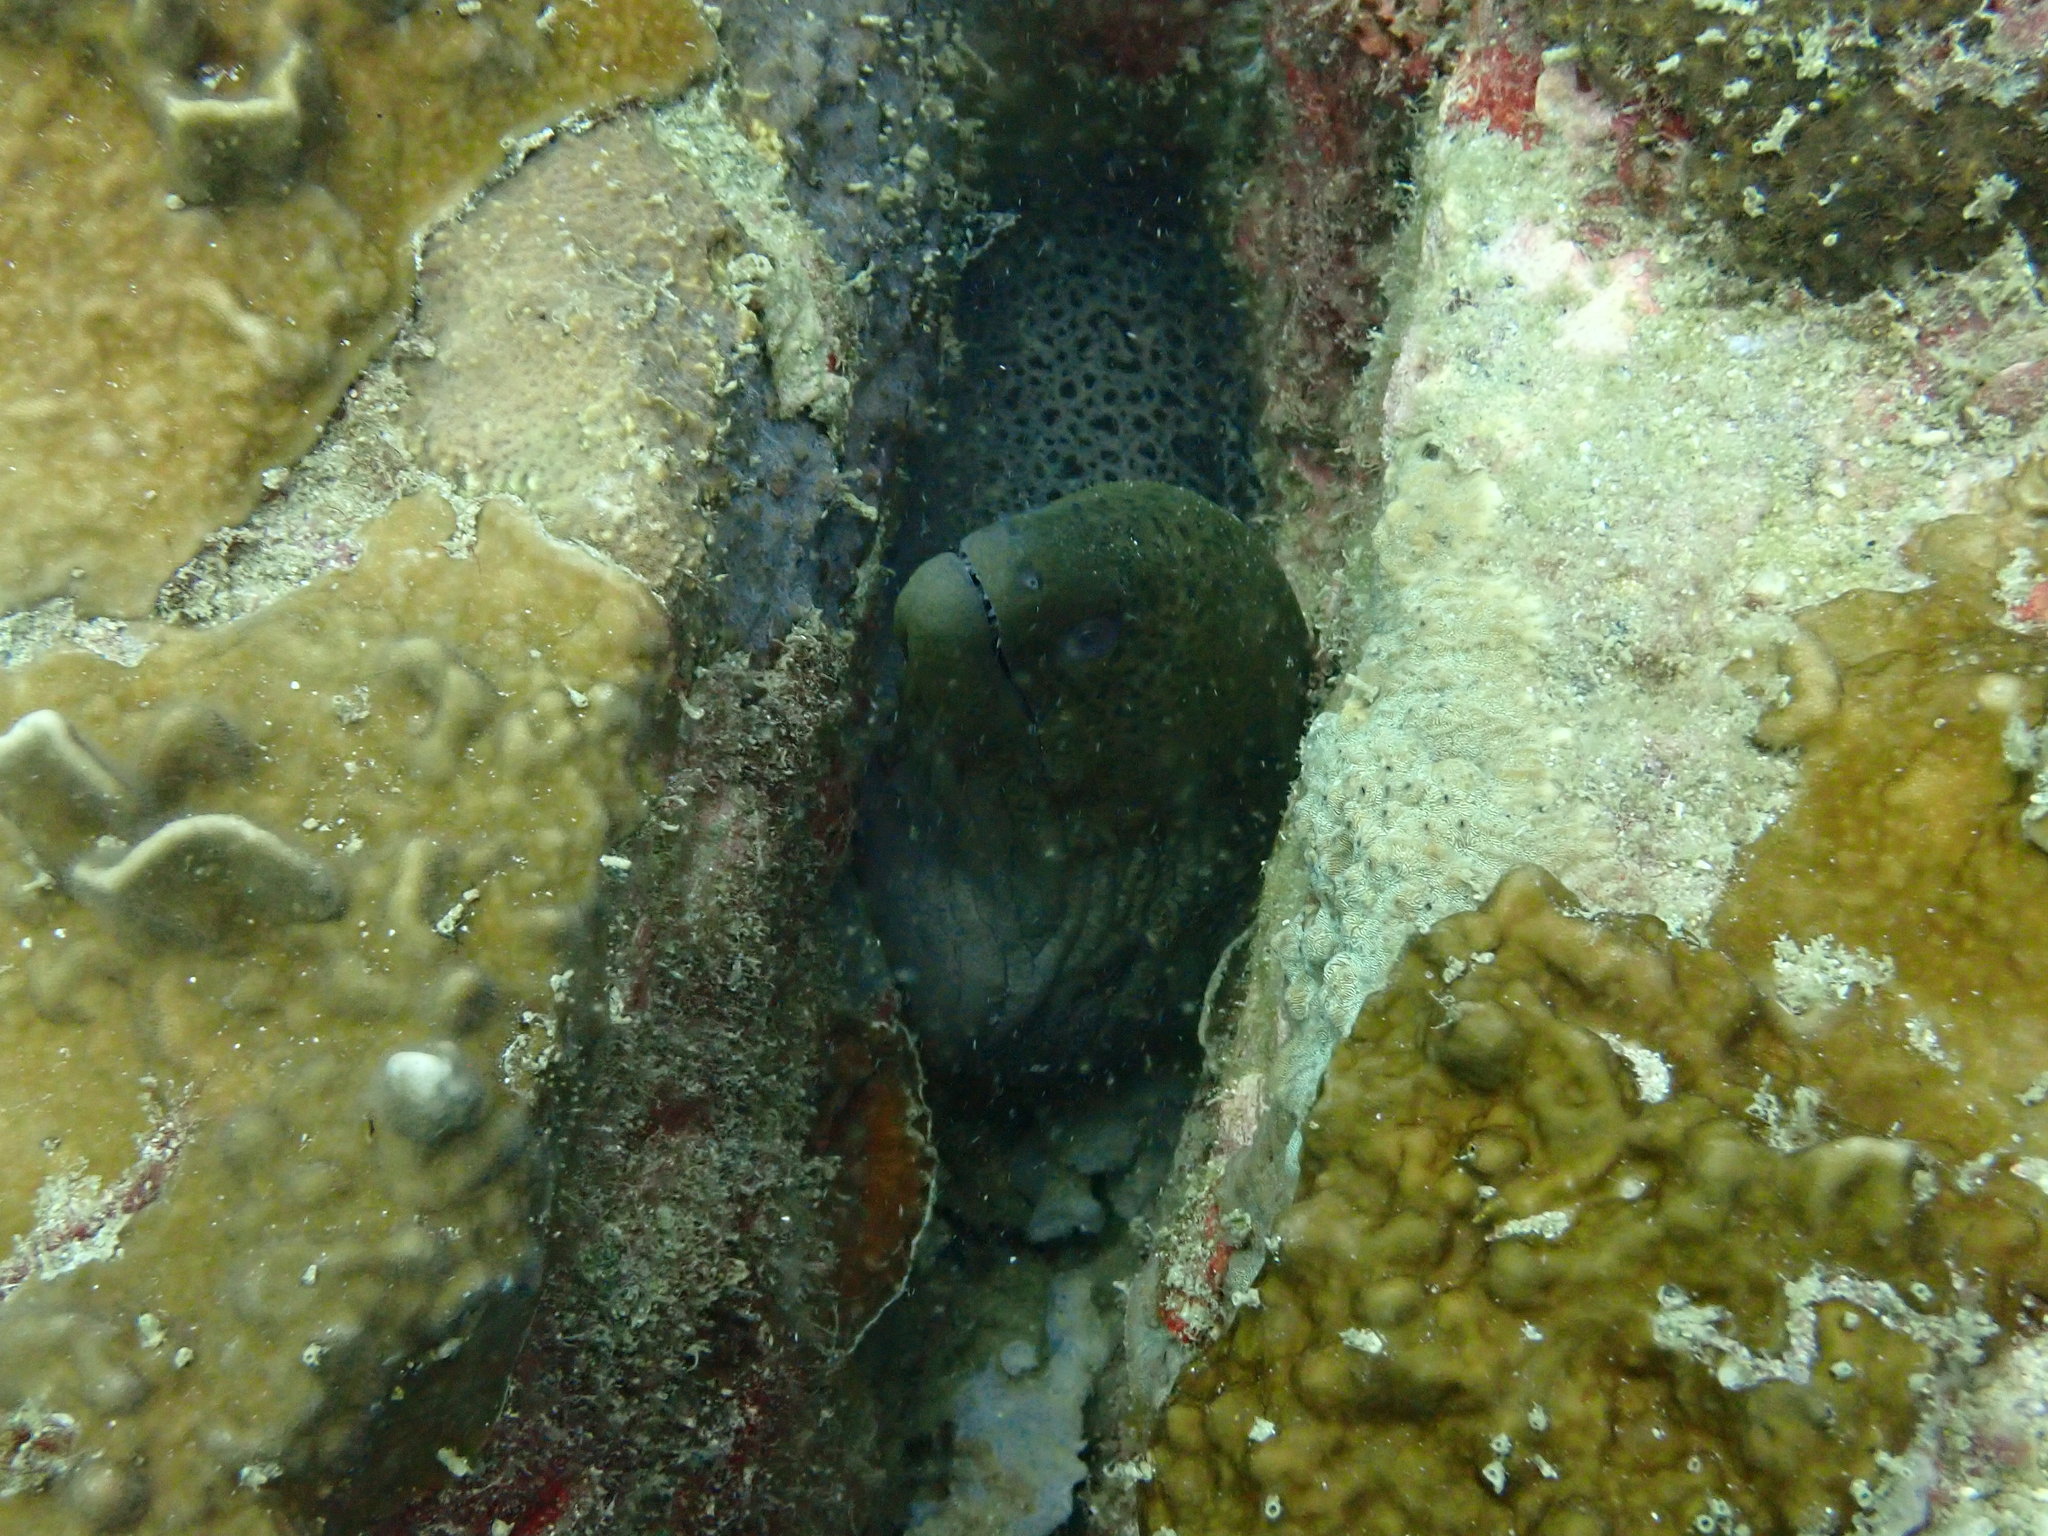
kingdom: Animalia
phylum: Chordata
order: Anguilliformes
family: Muraenidae
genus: Gymnothorax
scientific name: Gymnothorax javanicus
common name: Giant moray
